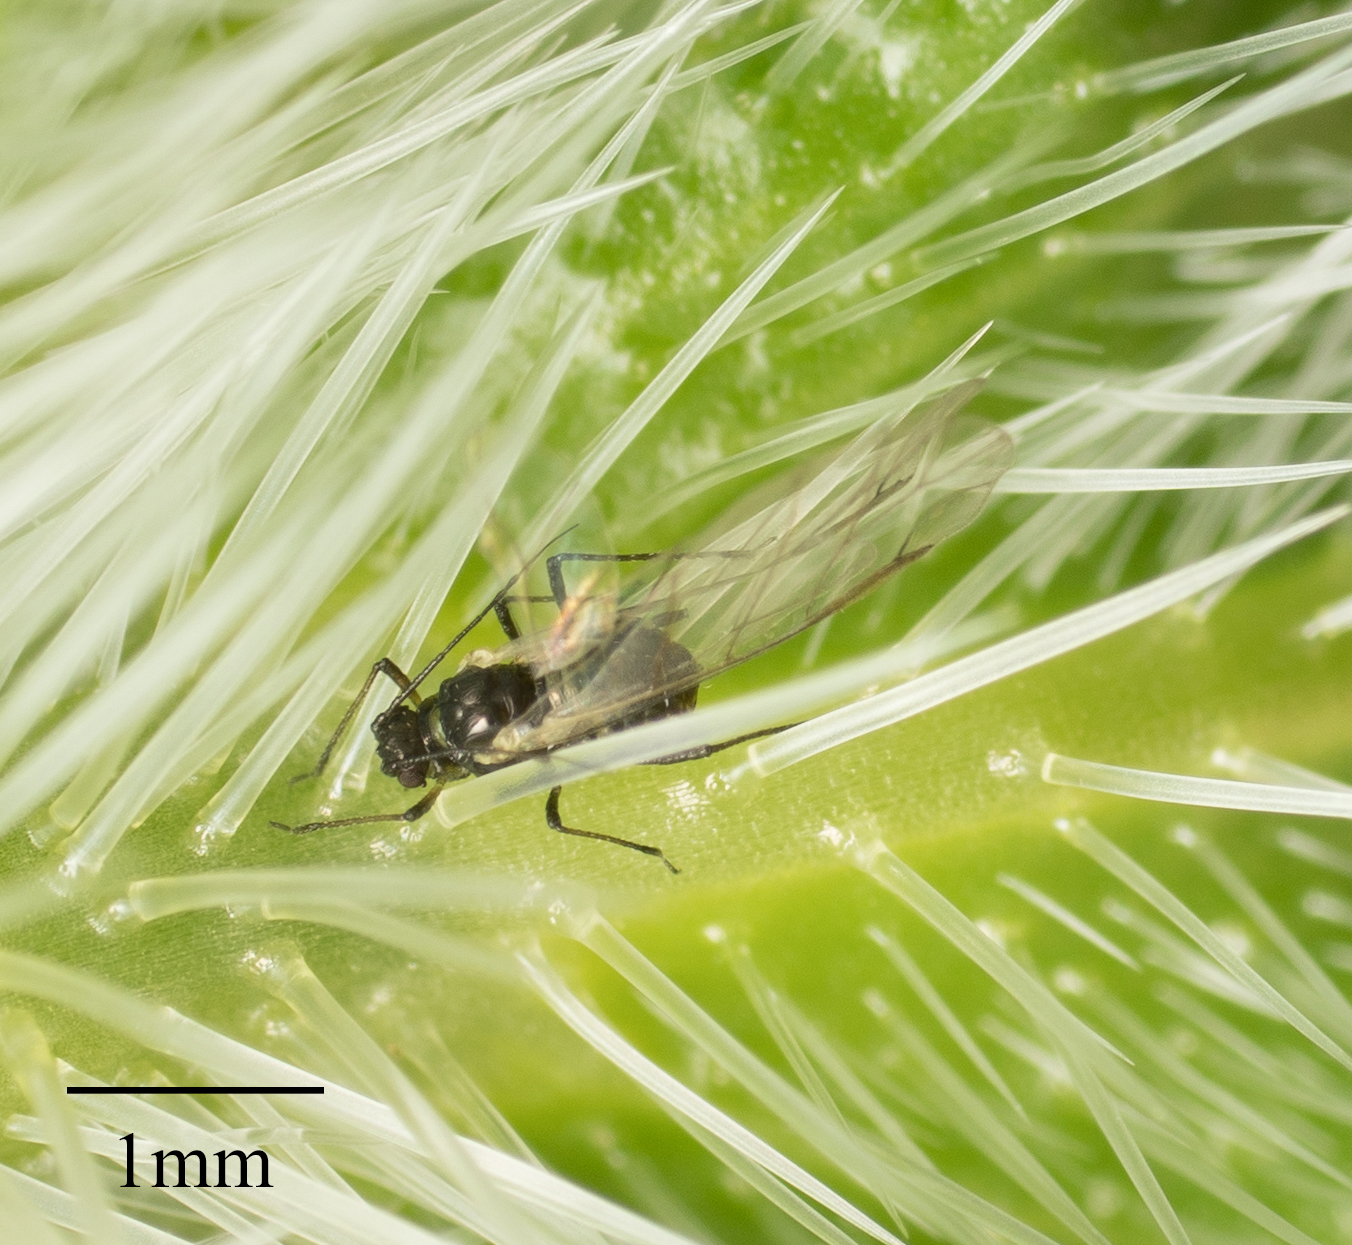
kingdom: Animalia
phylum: Arthropoda
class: Insecta
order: Hemiptera
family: Aphididae
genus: Hyalopterus
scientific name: Hyalopterus pruni
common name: Mealy plum aphid
